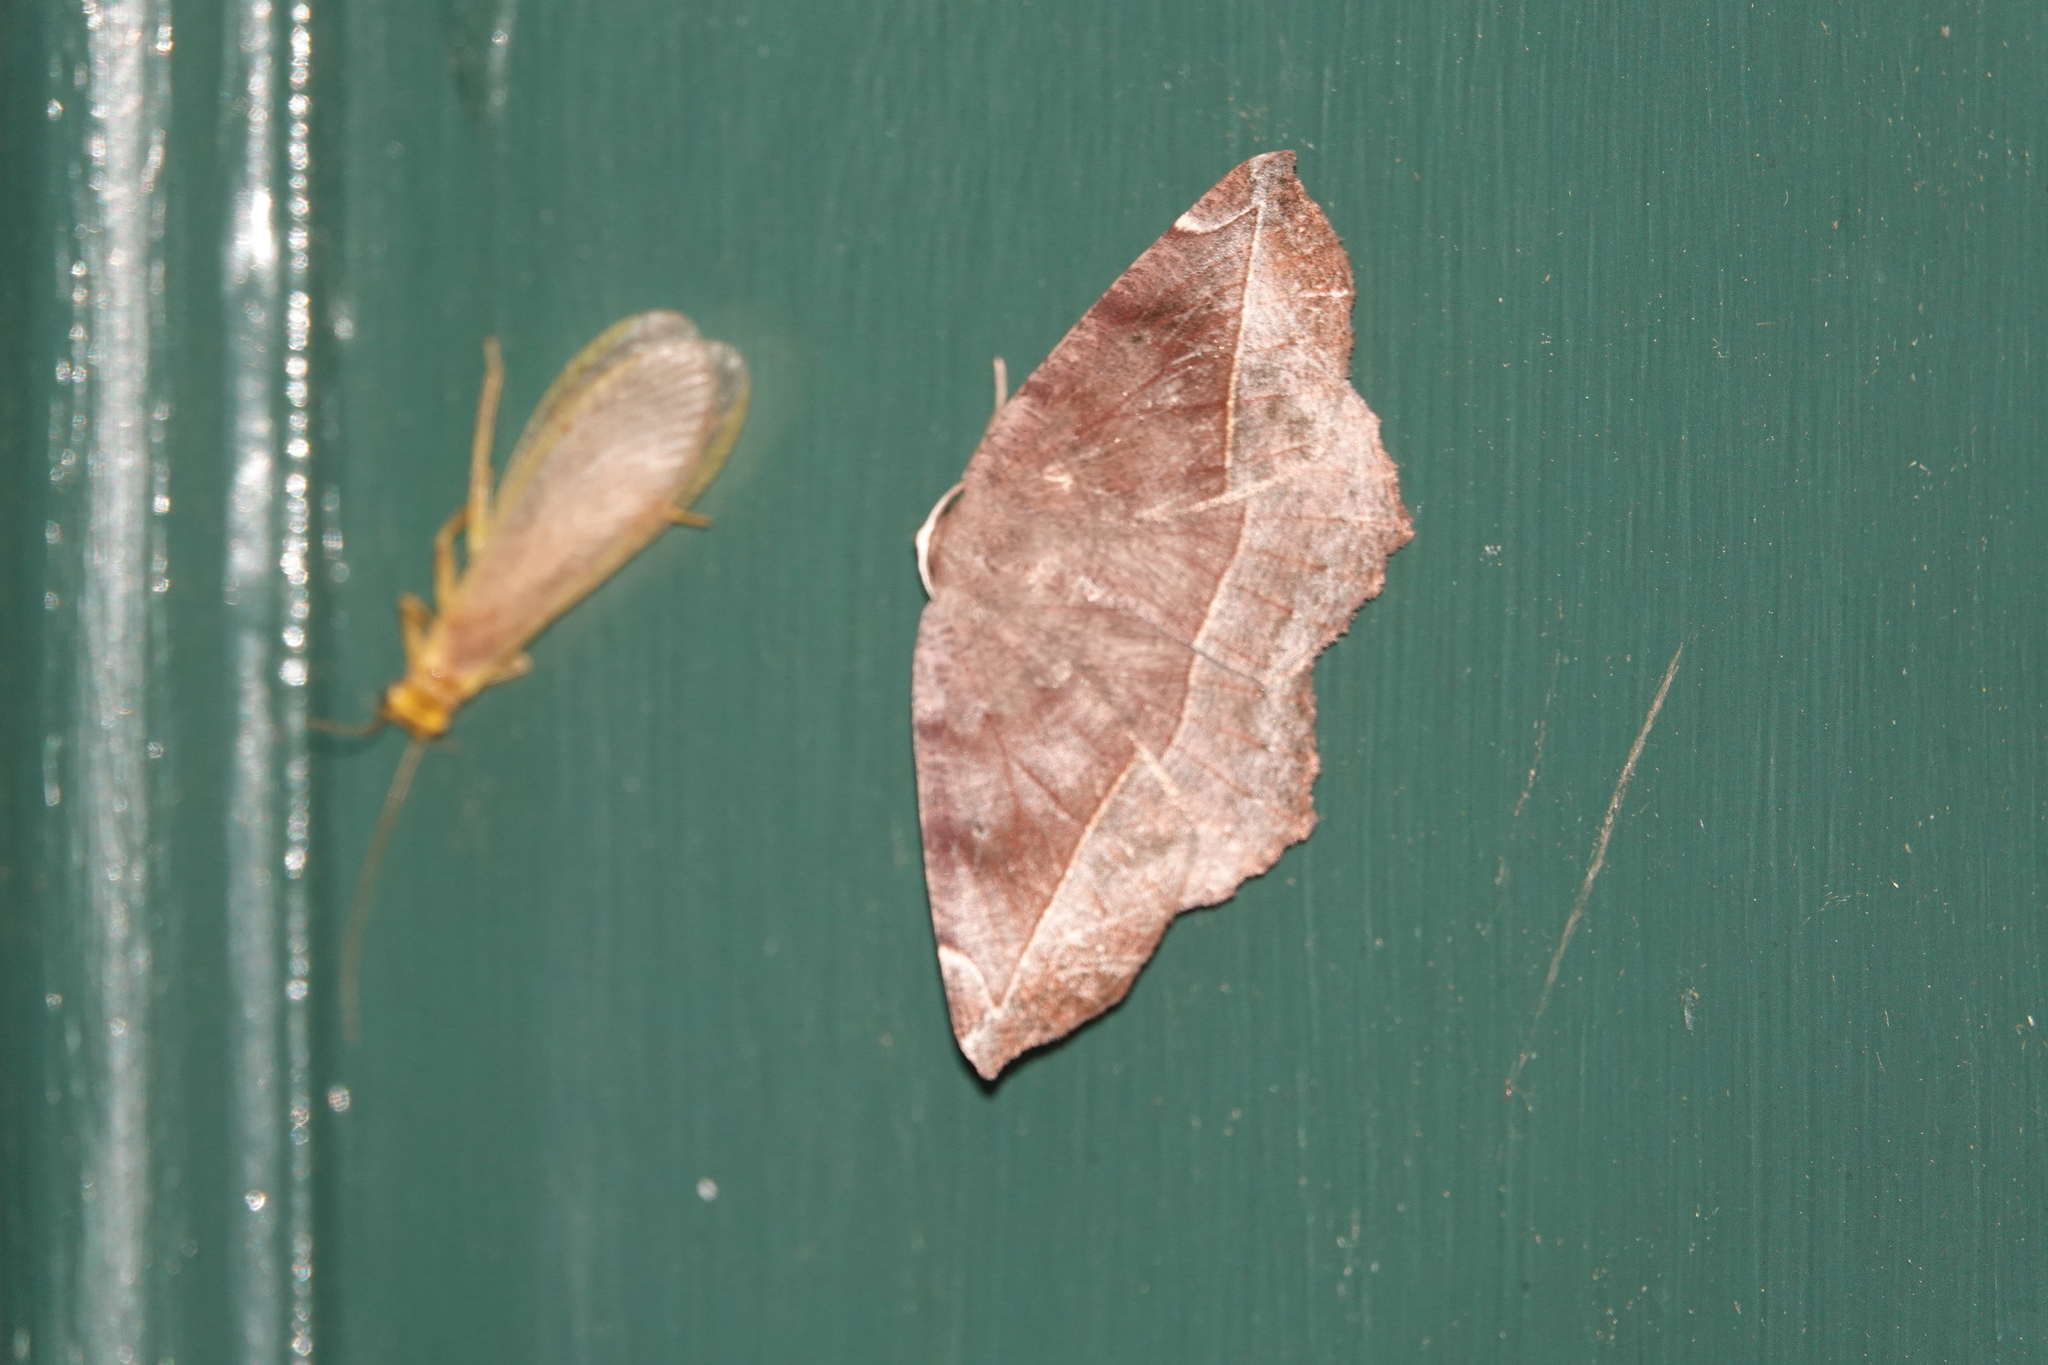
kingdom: Animalia
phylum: Arthropoda
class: Insecta
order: Lepidoptera
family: Geometridae
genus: Eutrapela
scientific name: Eutrapela clemataria
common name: Curved-toothed geometer
